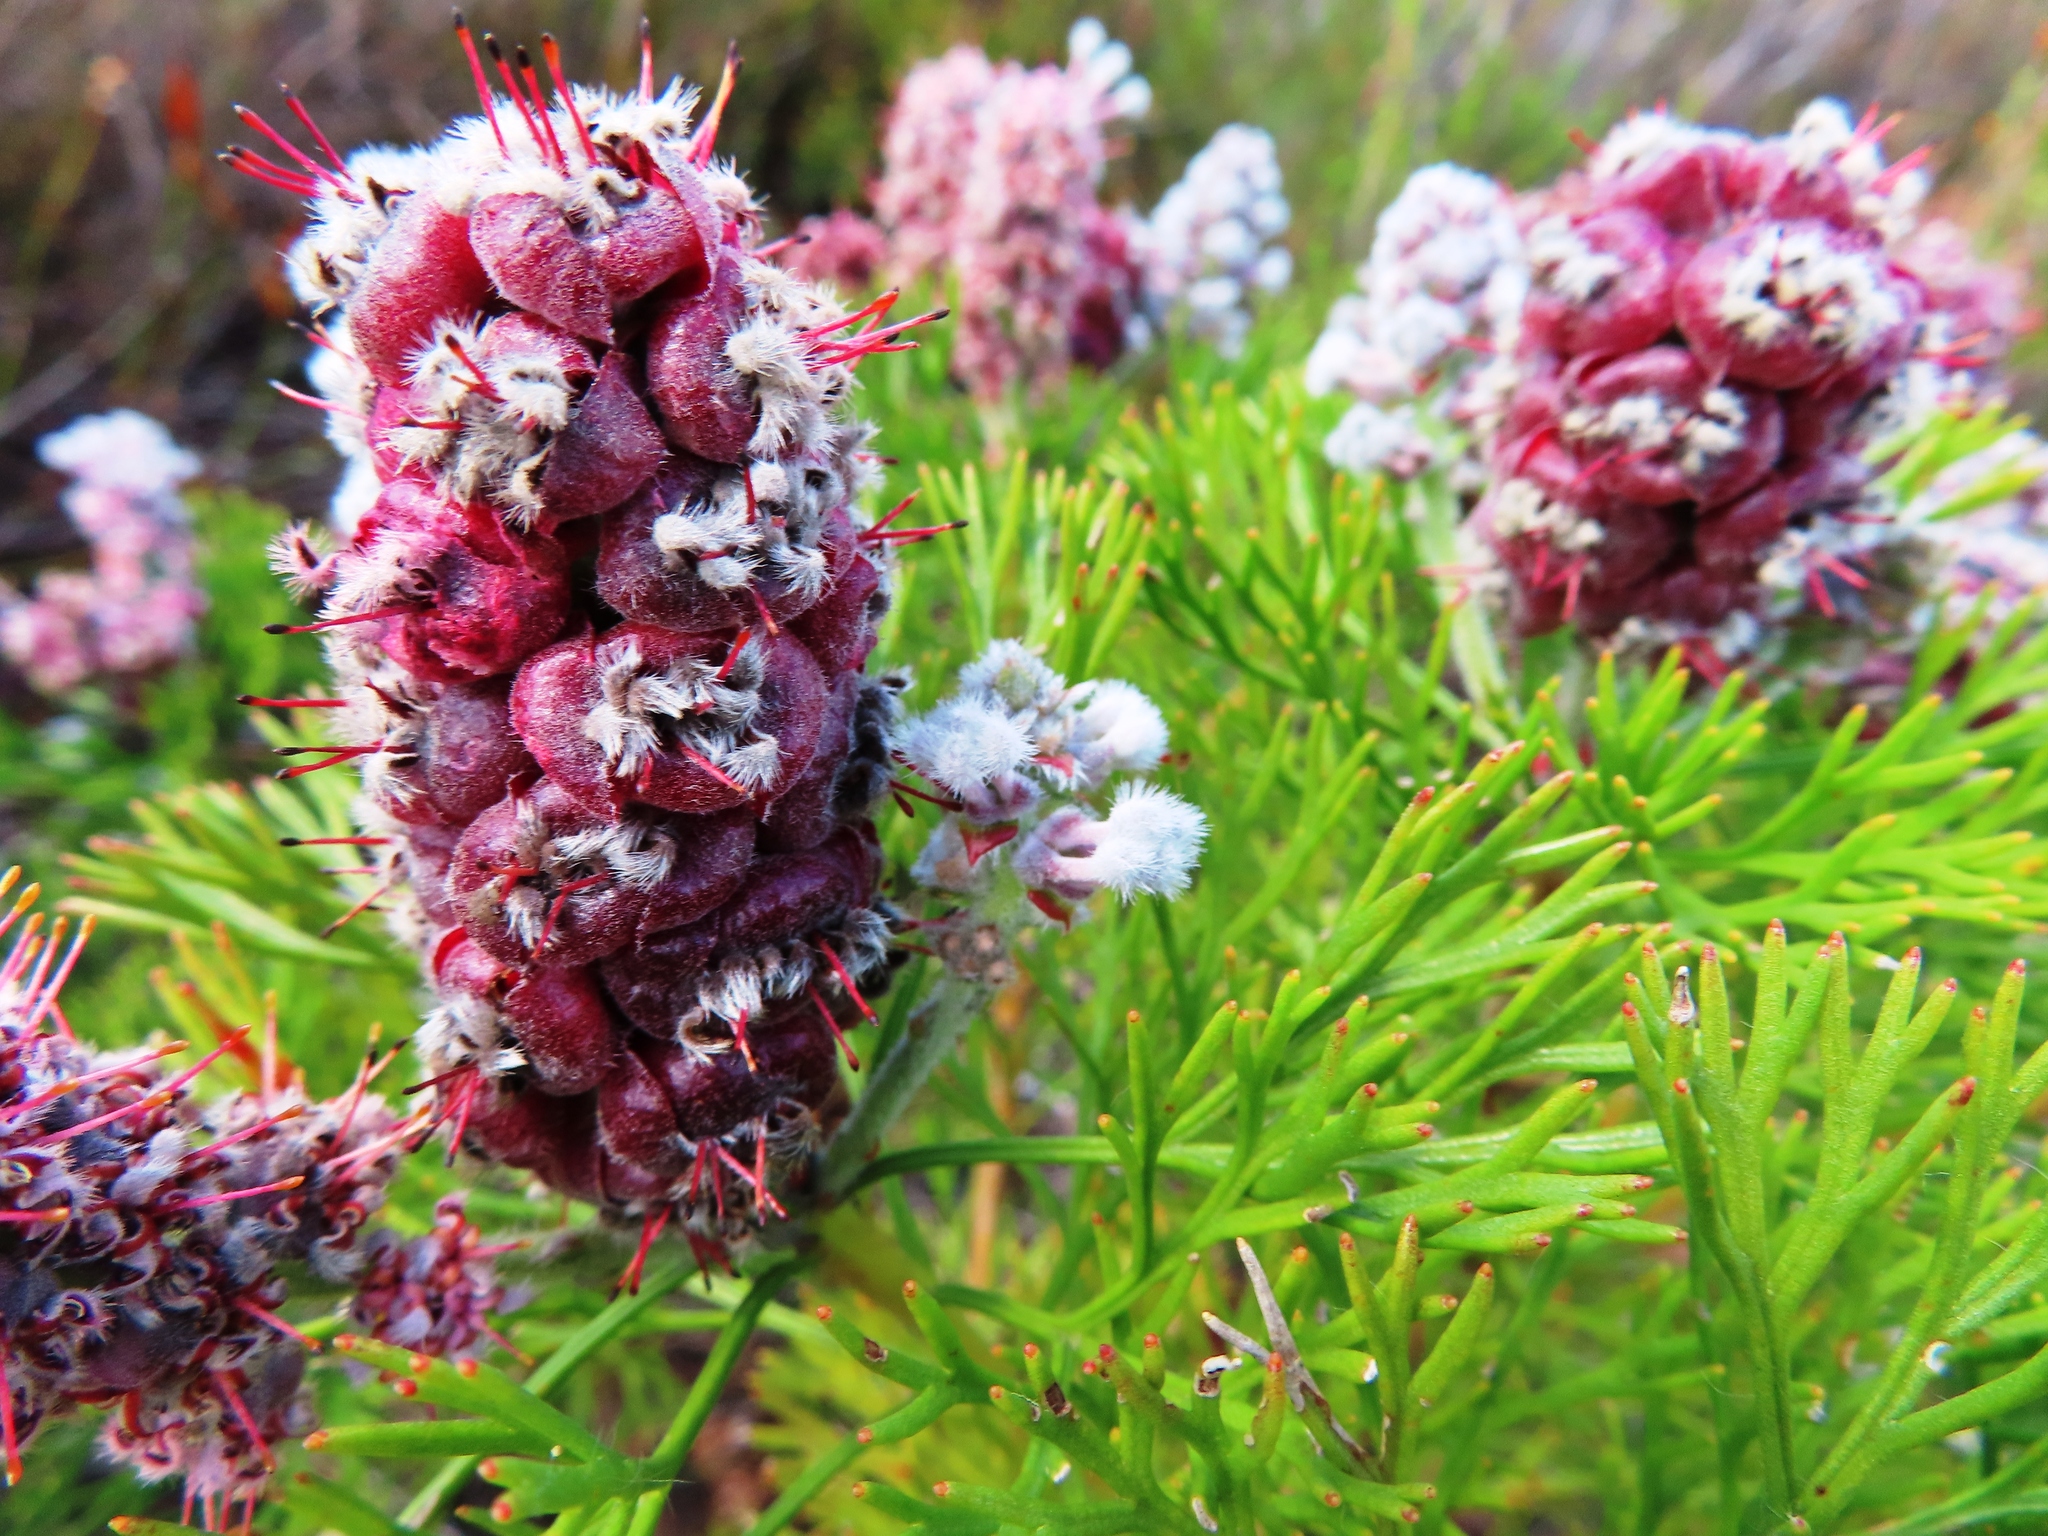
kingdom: Plantae
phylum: Tracheophyta
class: Magnoliopsida
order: Proteales
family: Proteaceae
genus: Paranomus
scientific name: Paranomus abrotanifolius
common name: Bredasdorp sceptre
